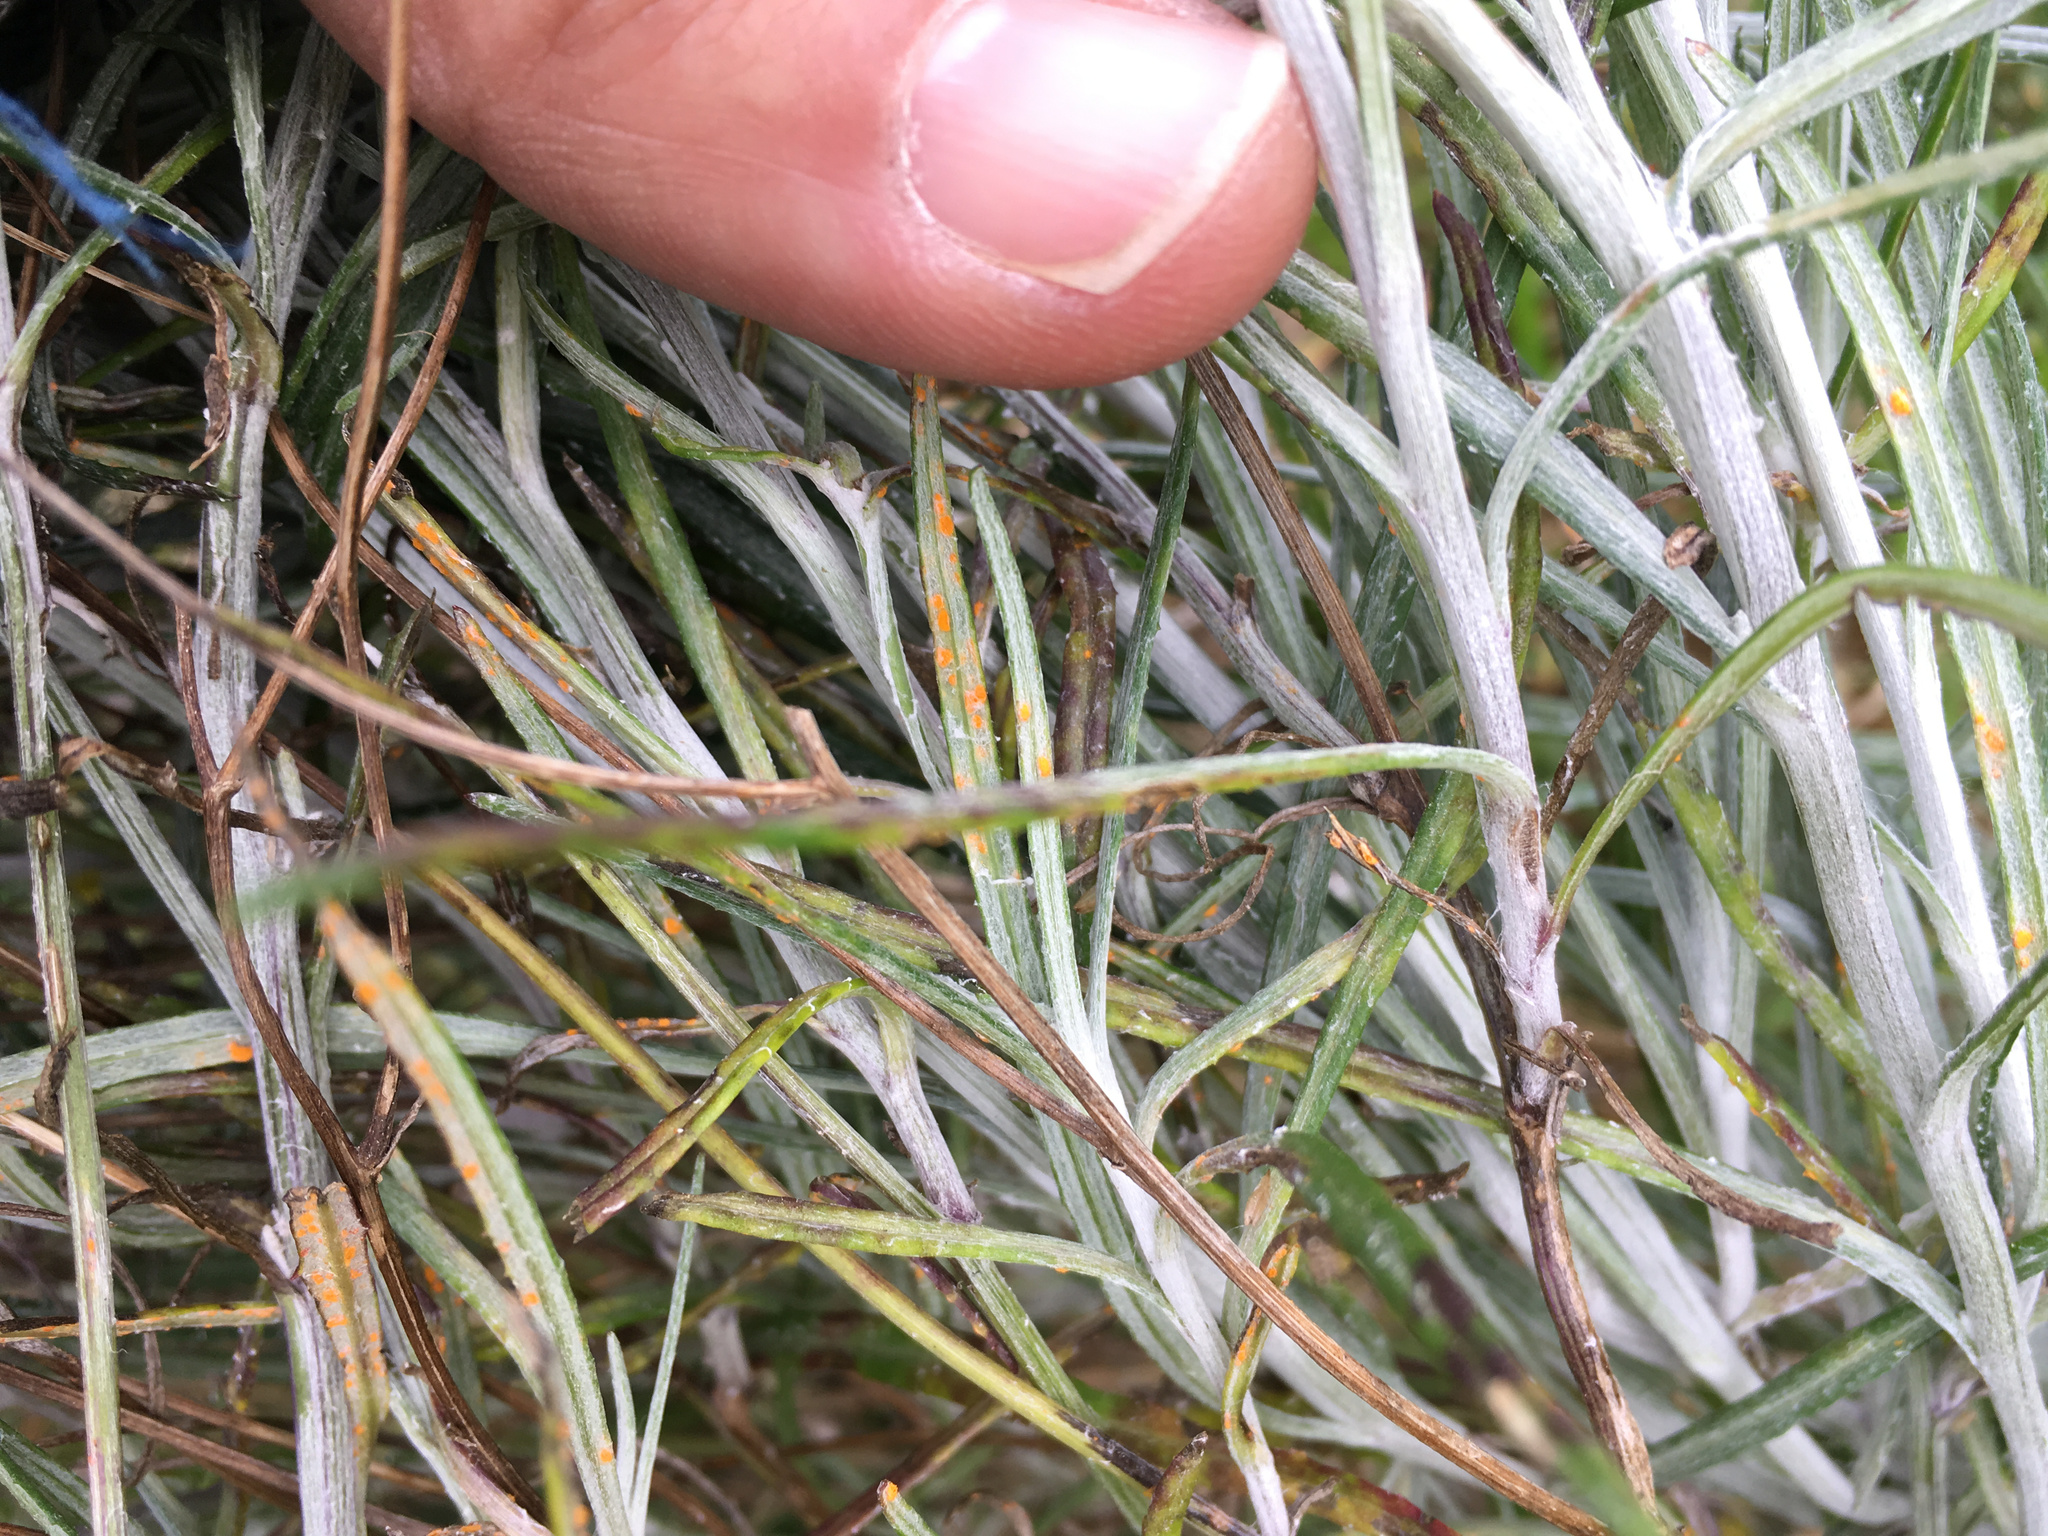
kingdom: Fungi
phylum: Basidiomycota
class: Pucciniomycetes
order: Pucciniales
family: Coleosporiaceae
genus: Coleosporium
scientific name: Coleosporium tussilaginis
